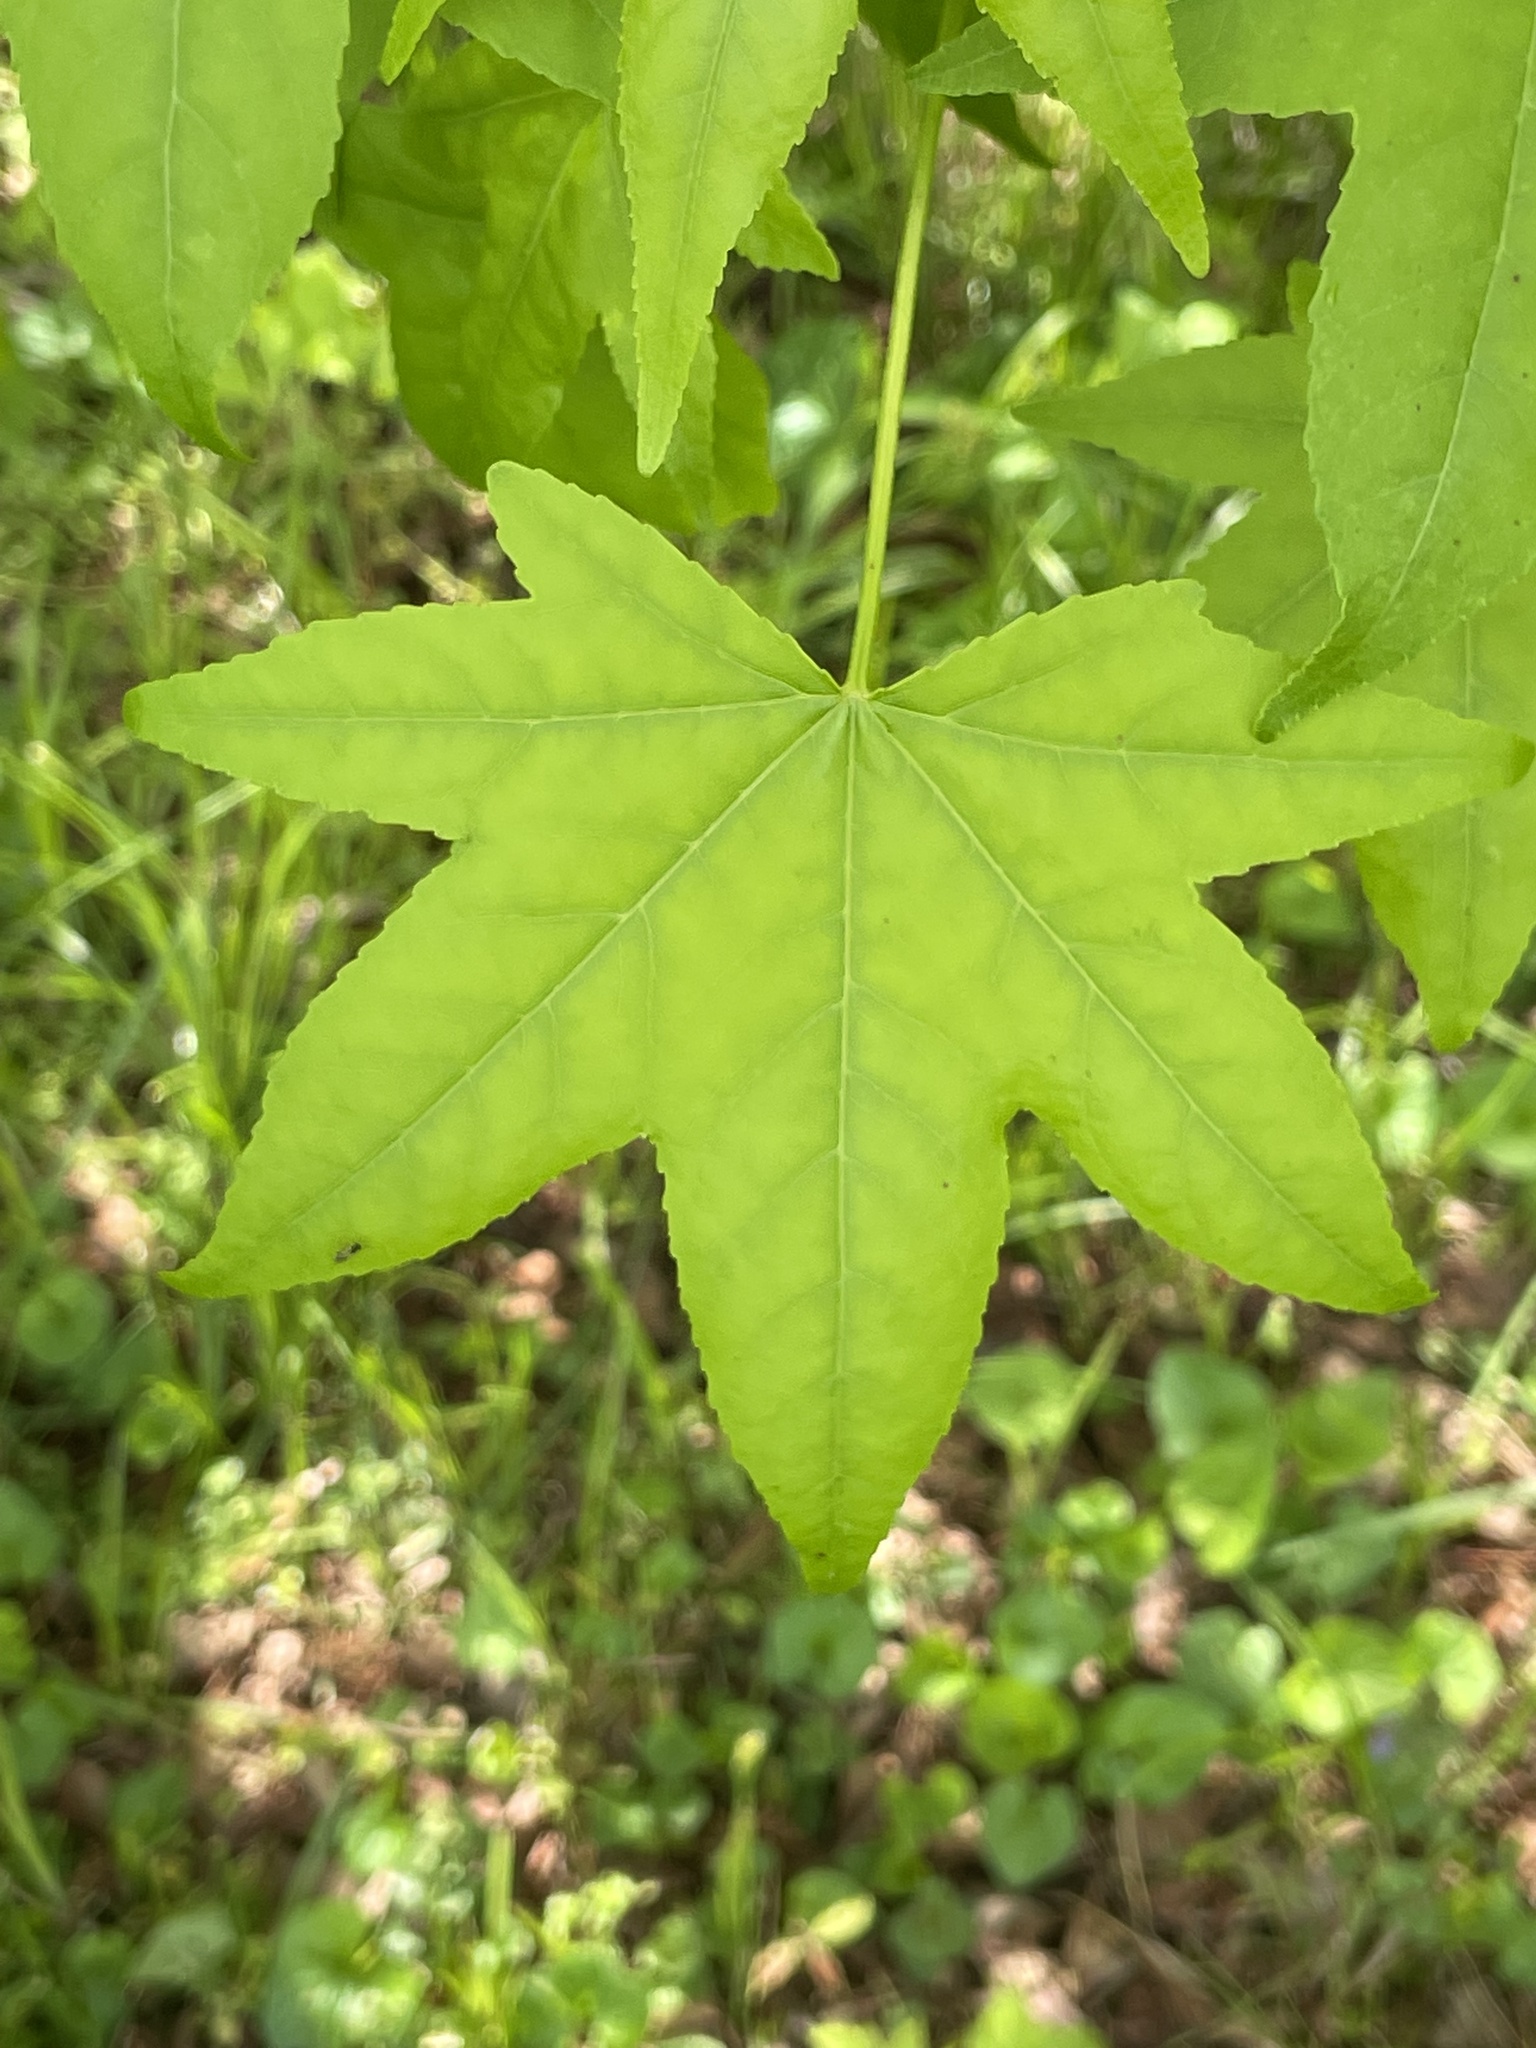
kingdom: Plantae
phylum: Tracheophyta
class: Magnoliopsida
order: Saxifragales
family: Altingiaceae
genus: Liquidambar
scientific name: Liquidambar styraciflua
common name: Sweet gum
